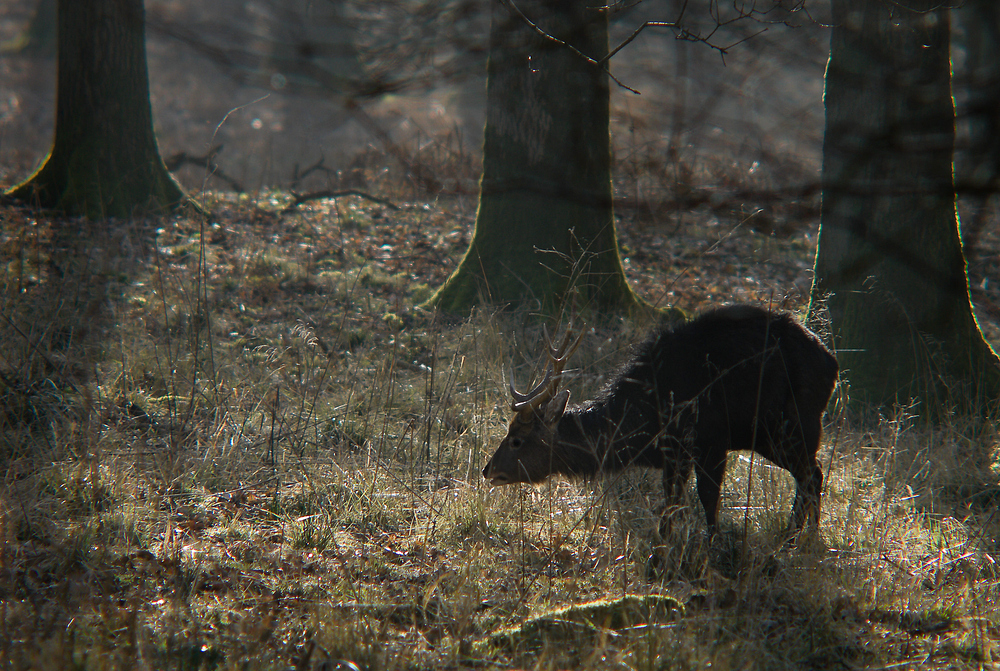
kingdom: Animalia
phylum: Chordata
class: Mammalia
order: Artiodactyla
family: Cervidae
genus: Cervus
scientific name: Cervus nippon
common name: Sika deer
